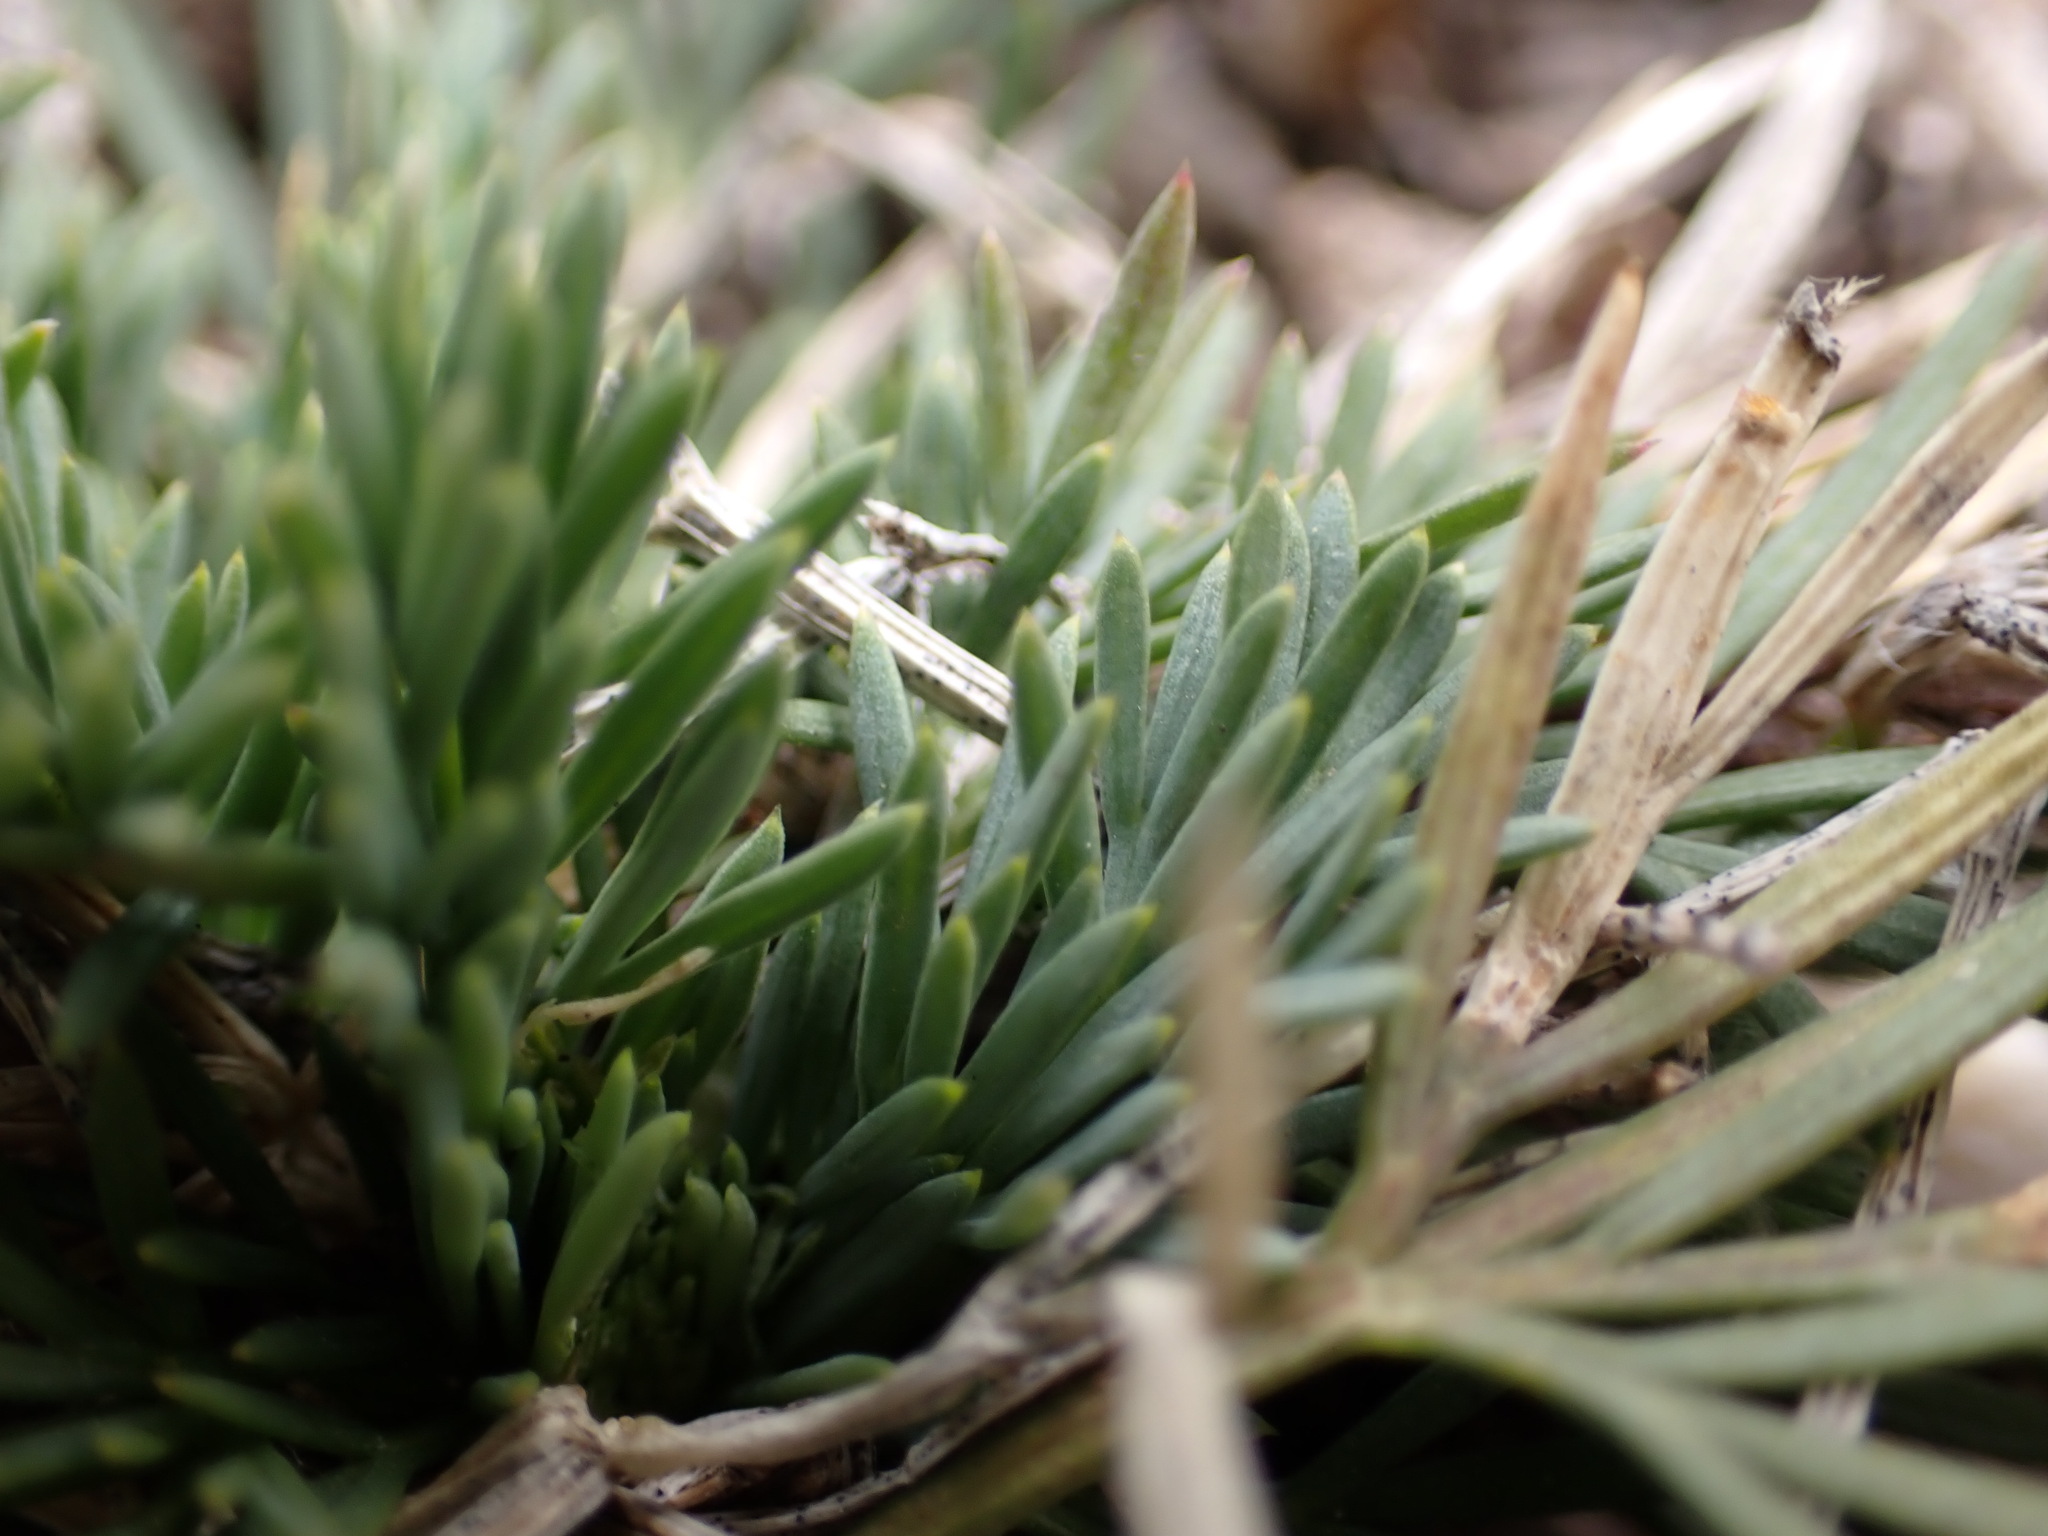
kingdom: Plantae
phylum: Tracheophyta
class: Magnoliopsida
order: Apiales
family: Apiaceae
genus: Seseli
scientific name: Seseli galloprovinciale
